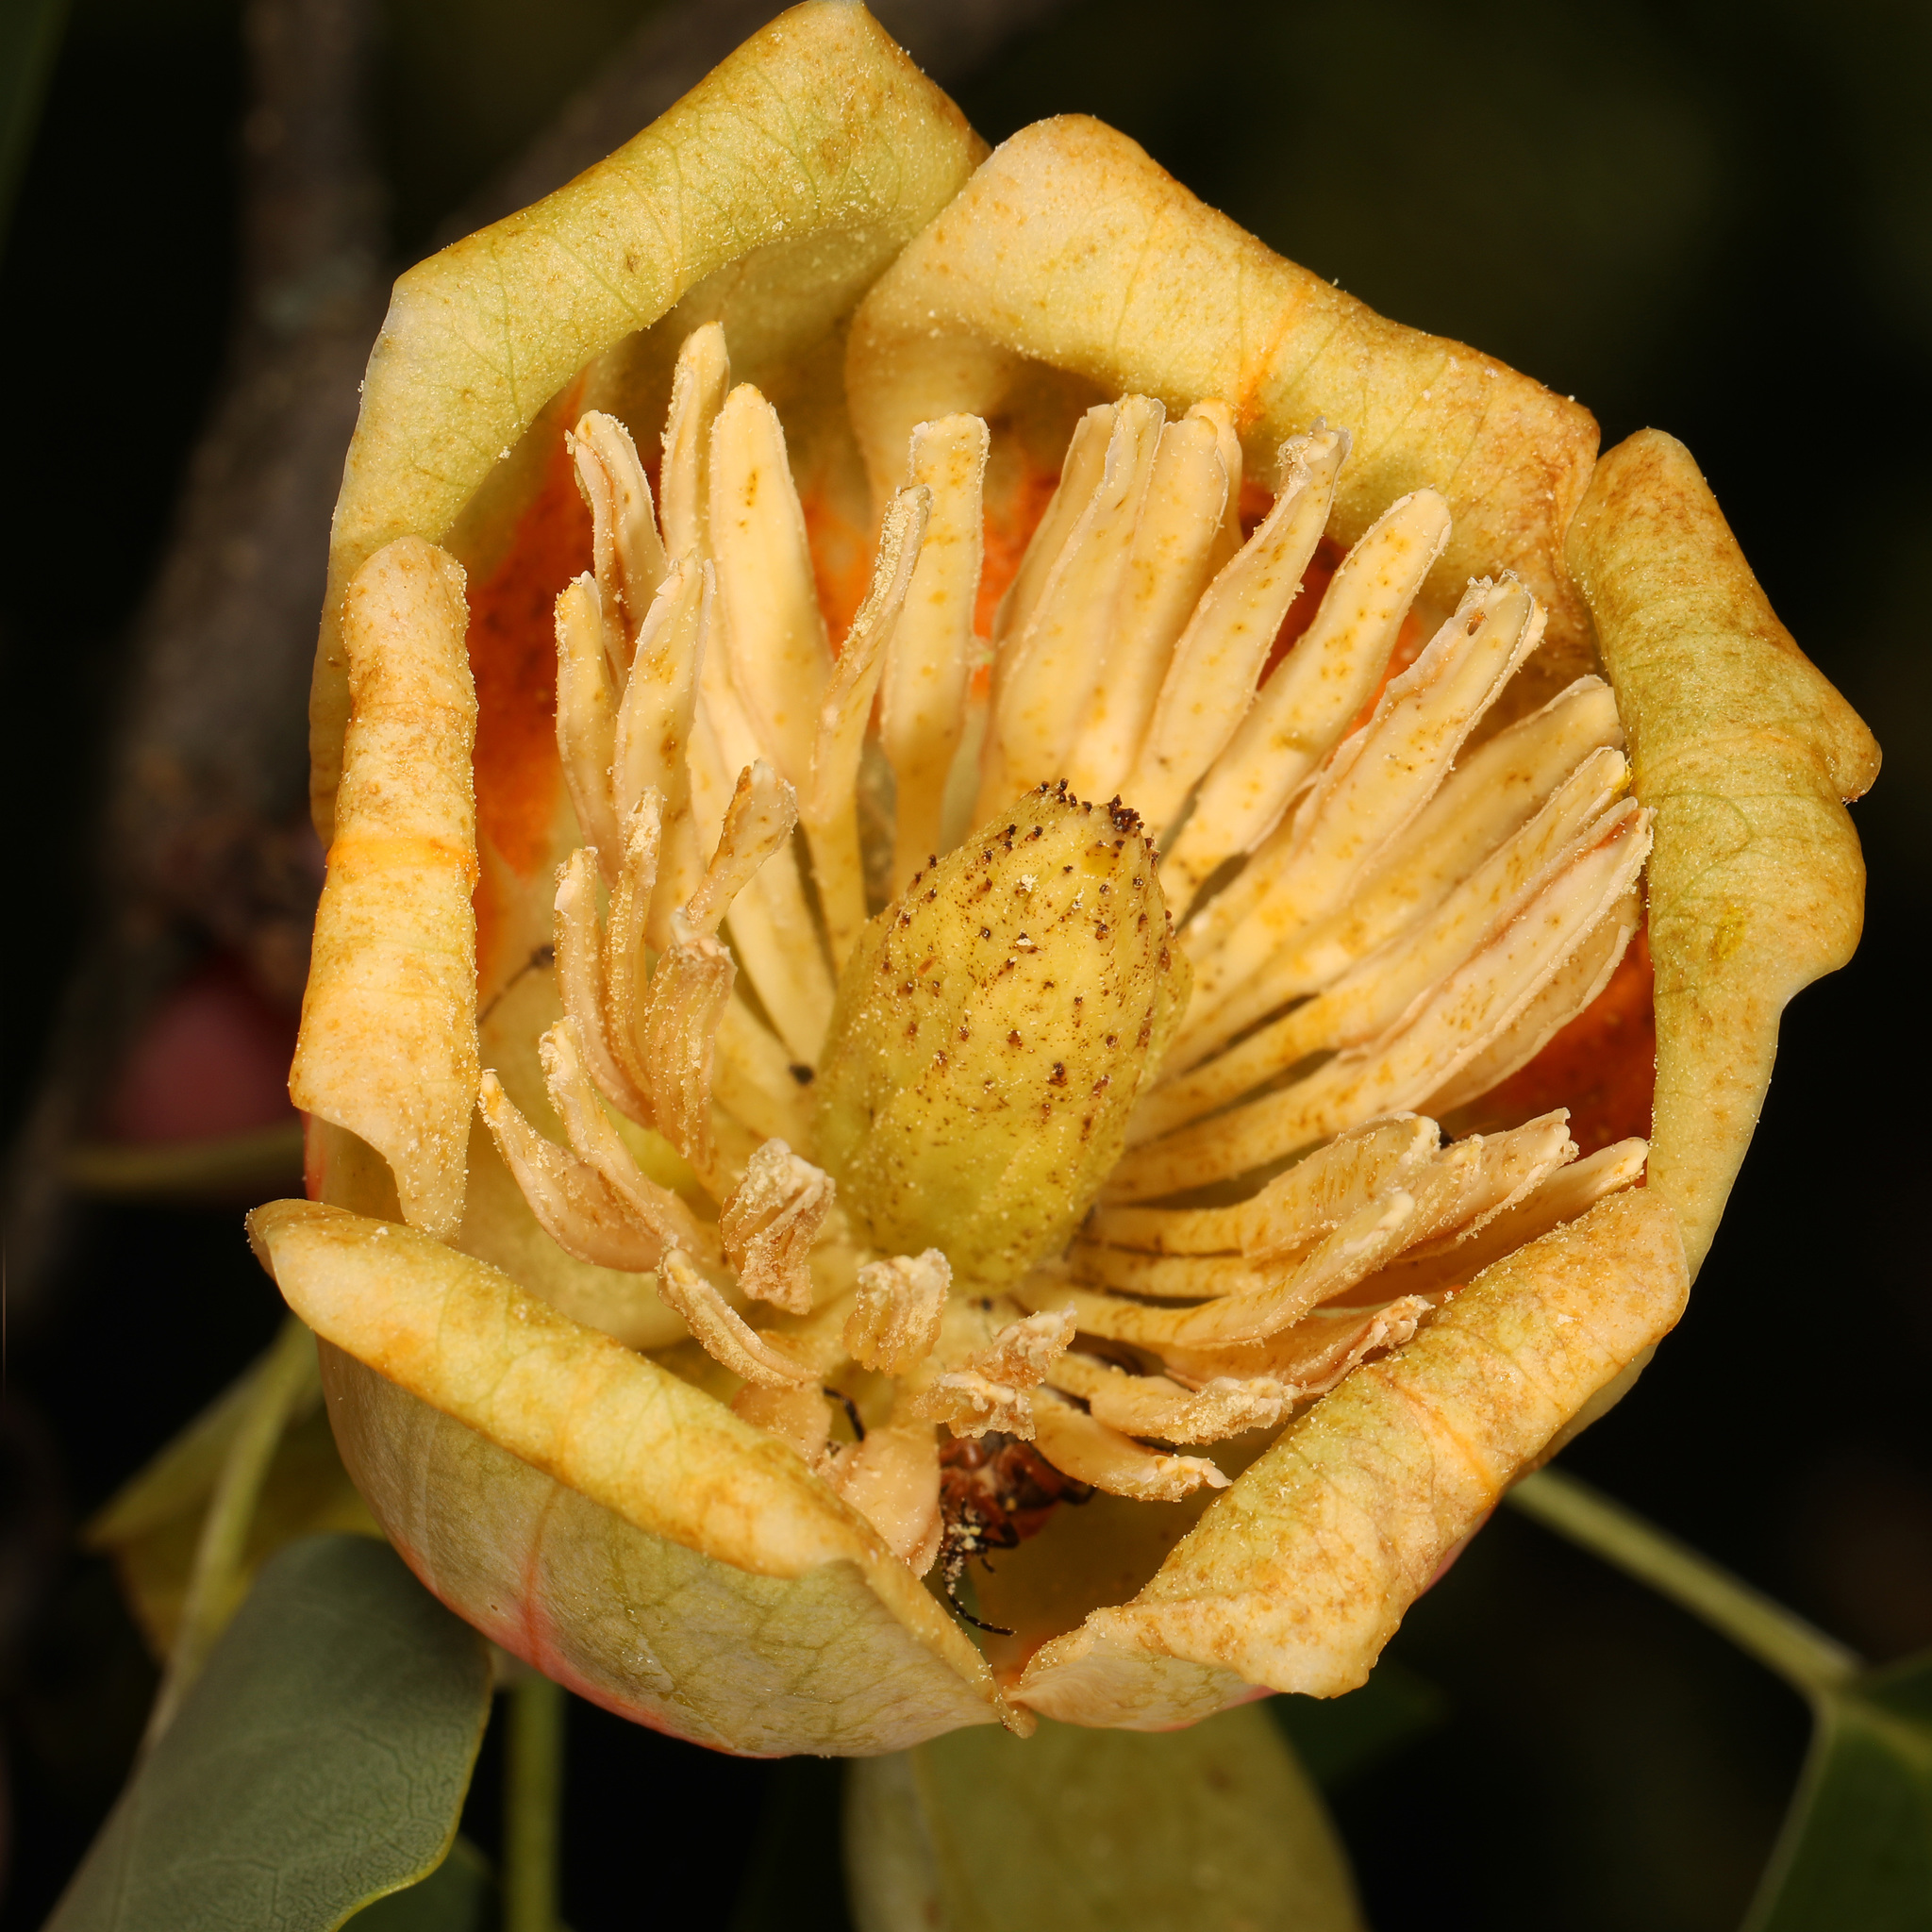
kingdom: Plantae
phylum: Tracheophyta
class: Magnoliopsida
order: Magnoliales
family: Magnoliaceae
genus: Liriodendron
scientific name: Liriodendron tulipifera
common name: Tulip tree
